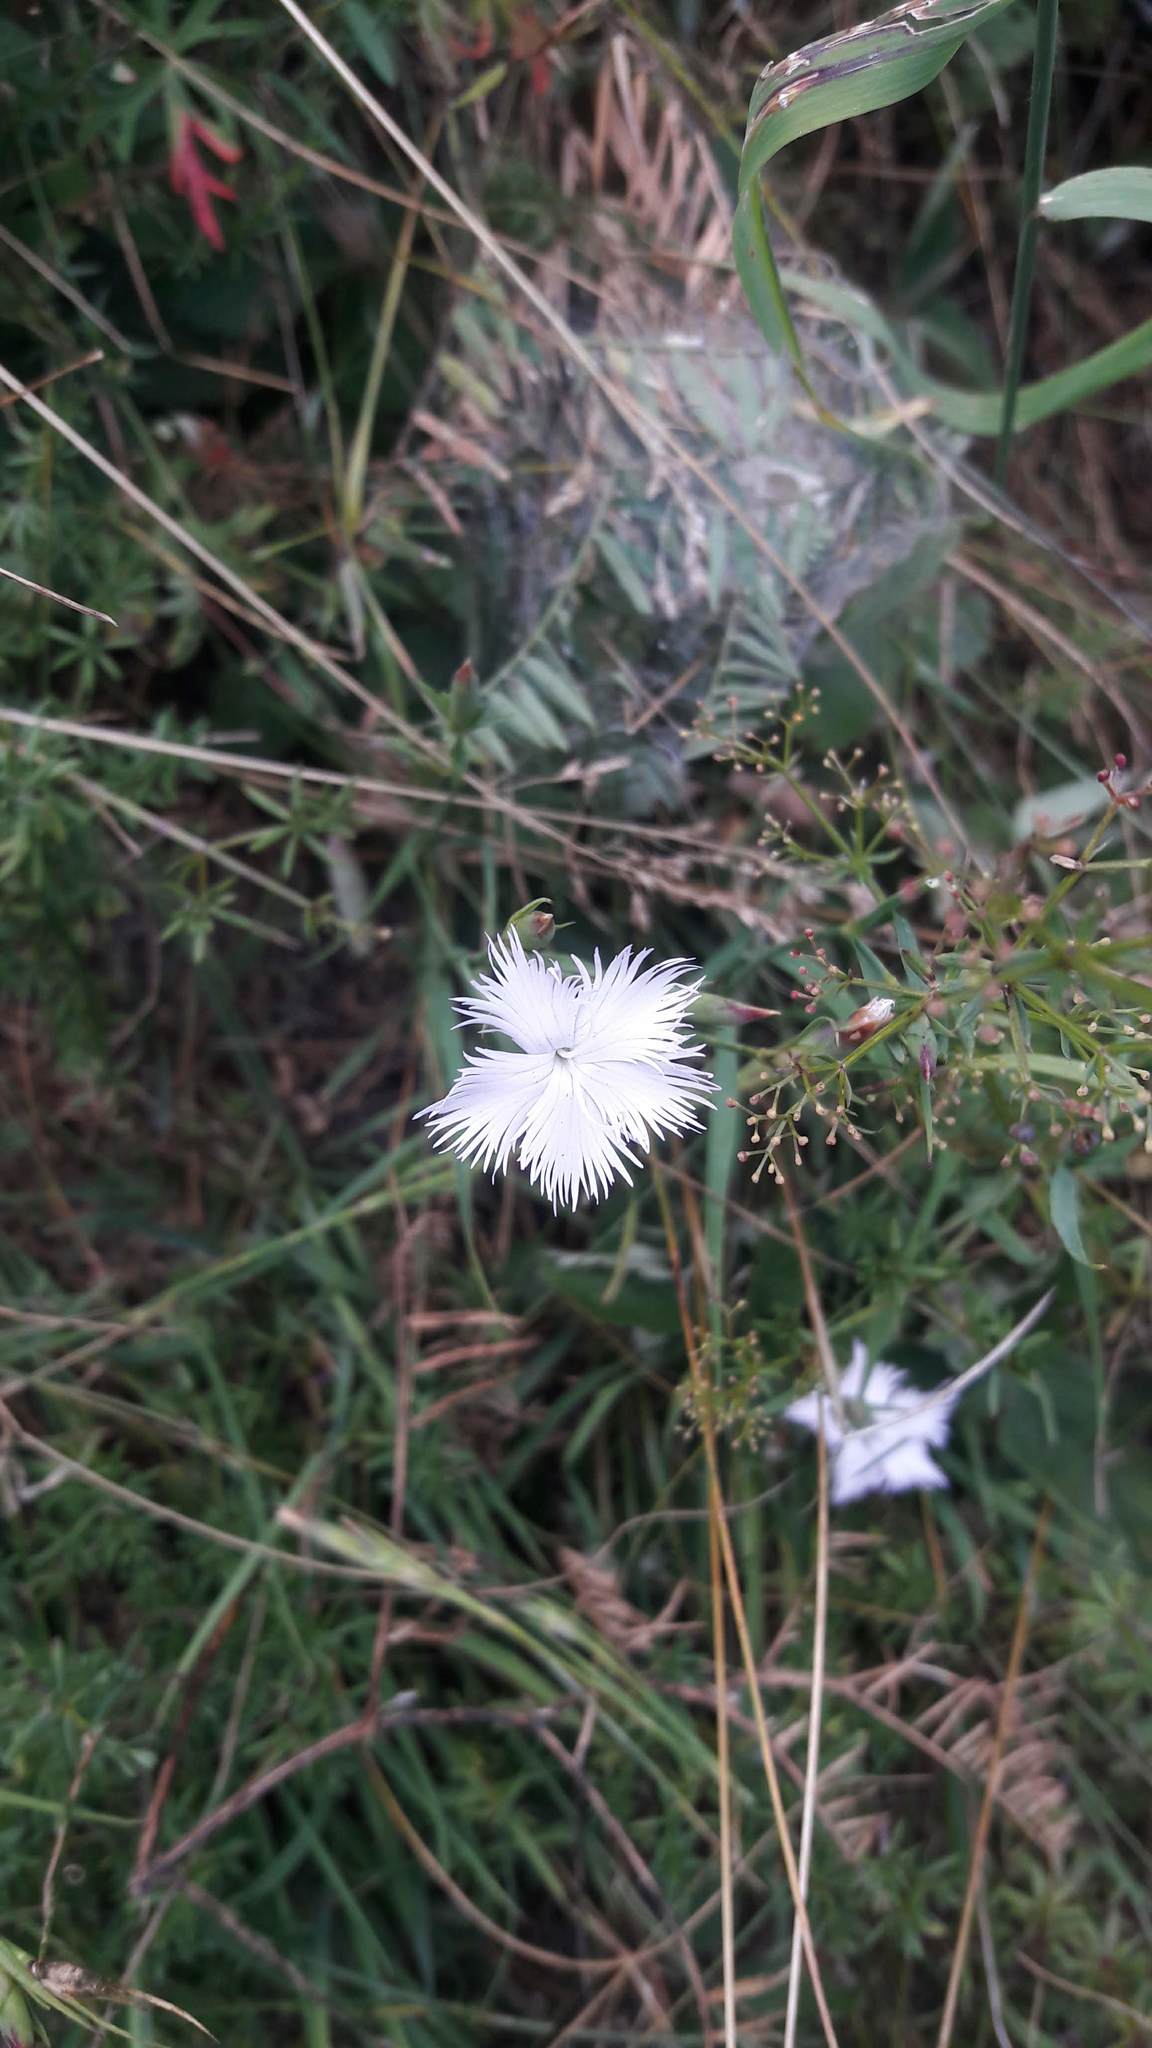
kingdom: Plantae
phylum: Tracheophyta
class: Magnoliopsida
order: Caryophyllales
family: Caryophyllaceae
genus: Dianthus
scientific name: Dianthus hyssopifolius
